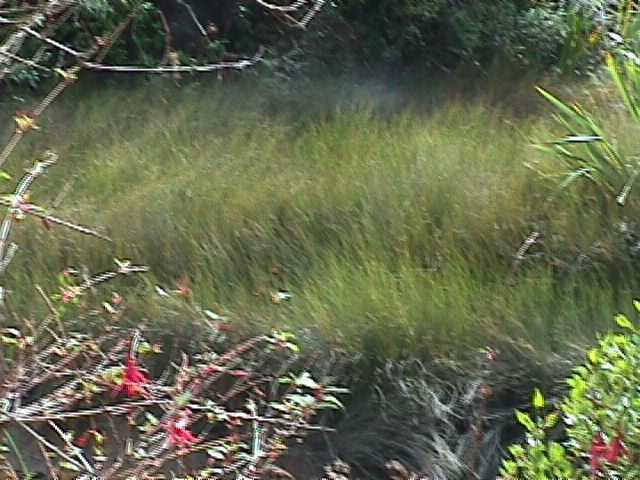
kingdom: Plantae
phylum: Tracheophyta
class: Liliopsida
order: Poales
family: Restionaceae
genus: Apodasmia
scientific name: Apodasmia similis
